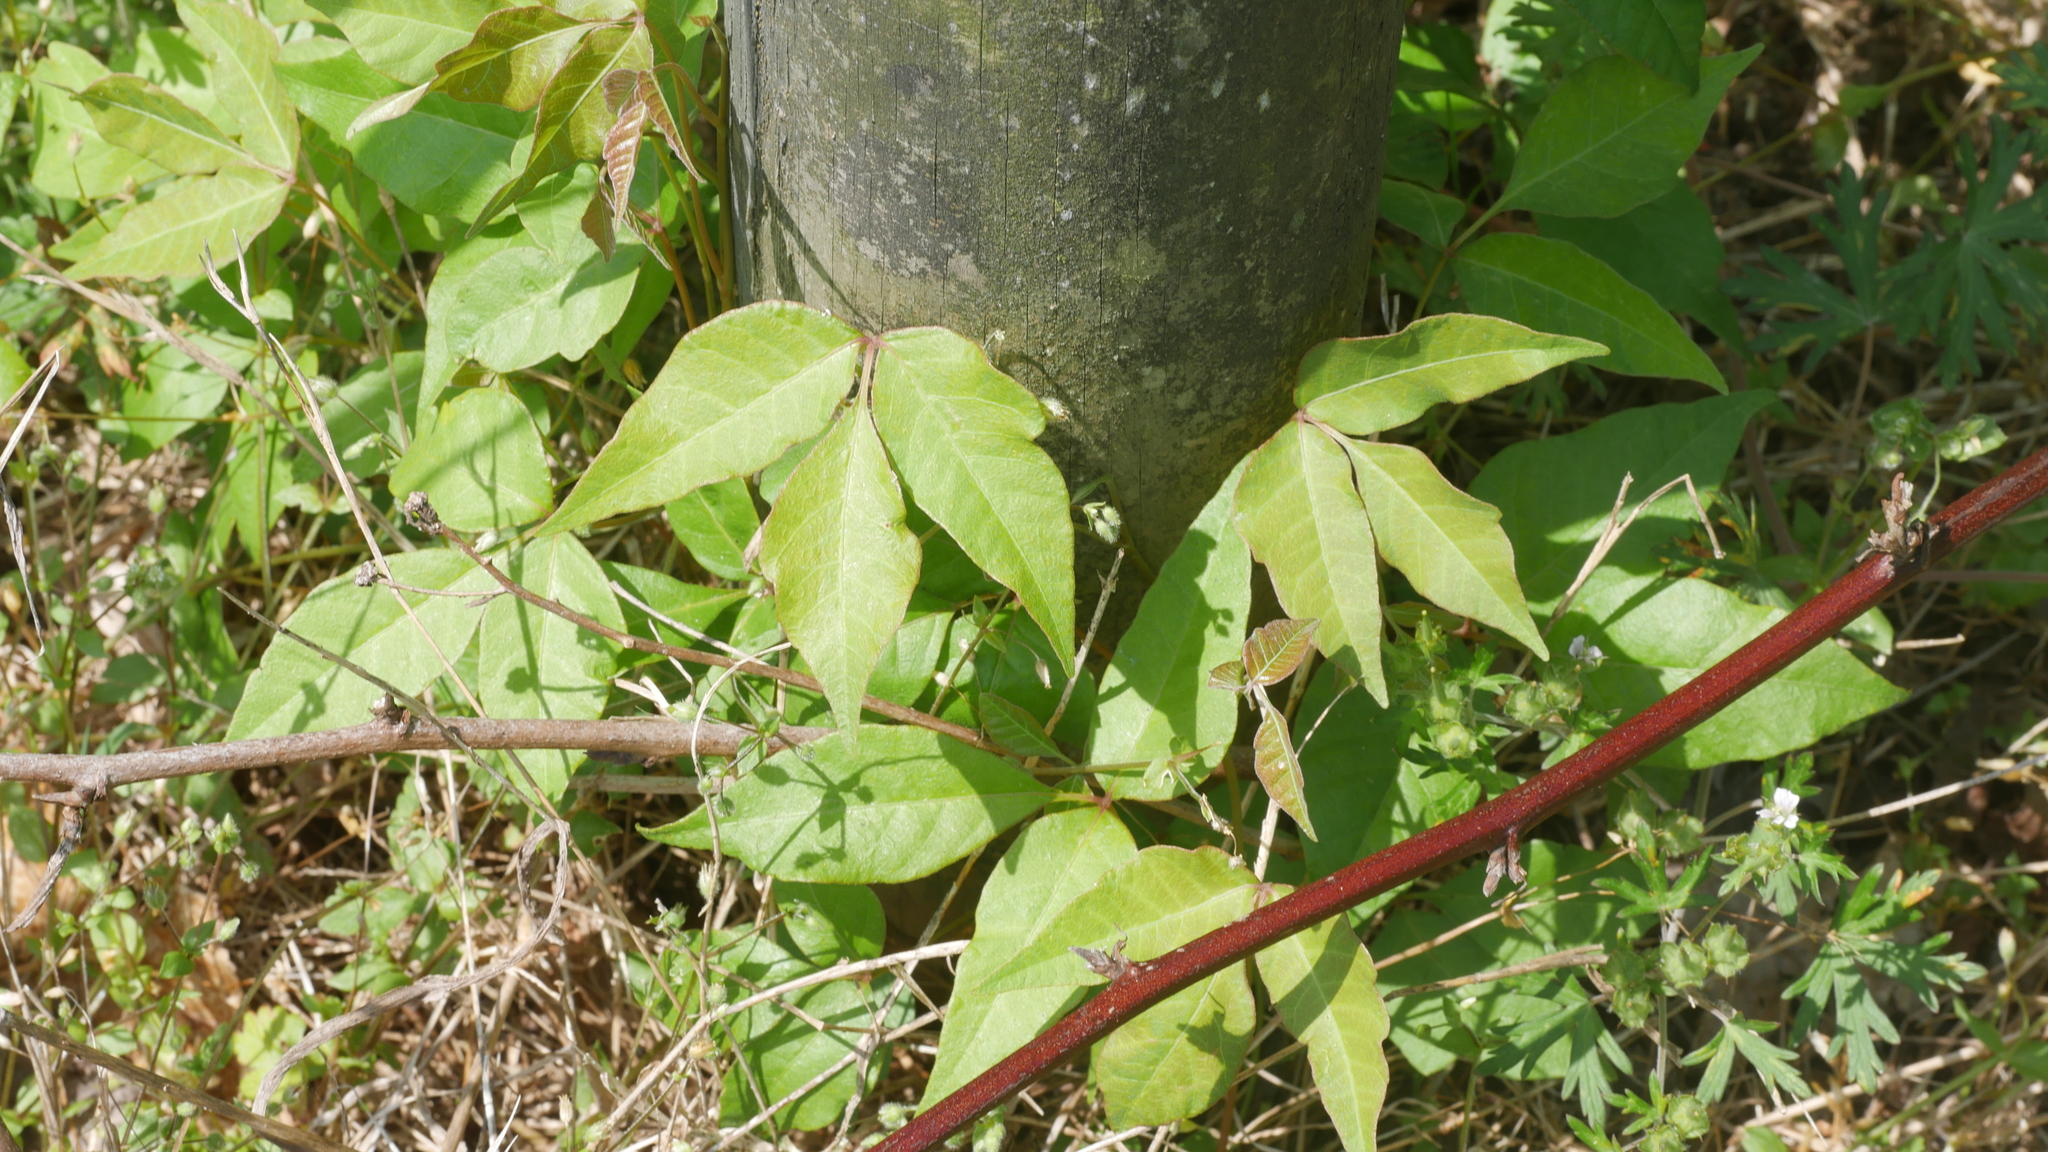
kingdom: Plantae
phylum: Tracheophyta
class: Magnoliopsida
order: Sapindales
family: Anacardiaceae
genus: Toxicodendron
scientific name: Toxicodendron radicans
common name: Poison ivy
